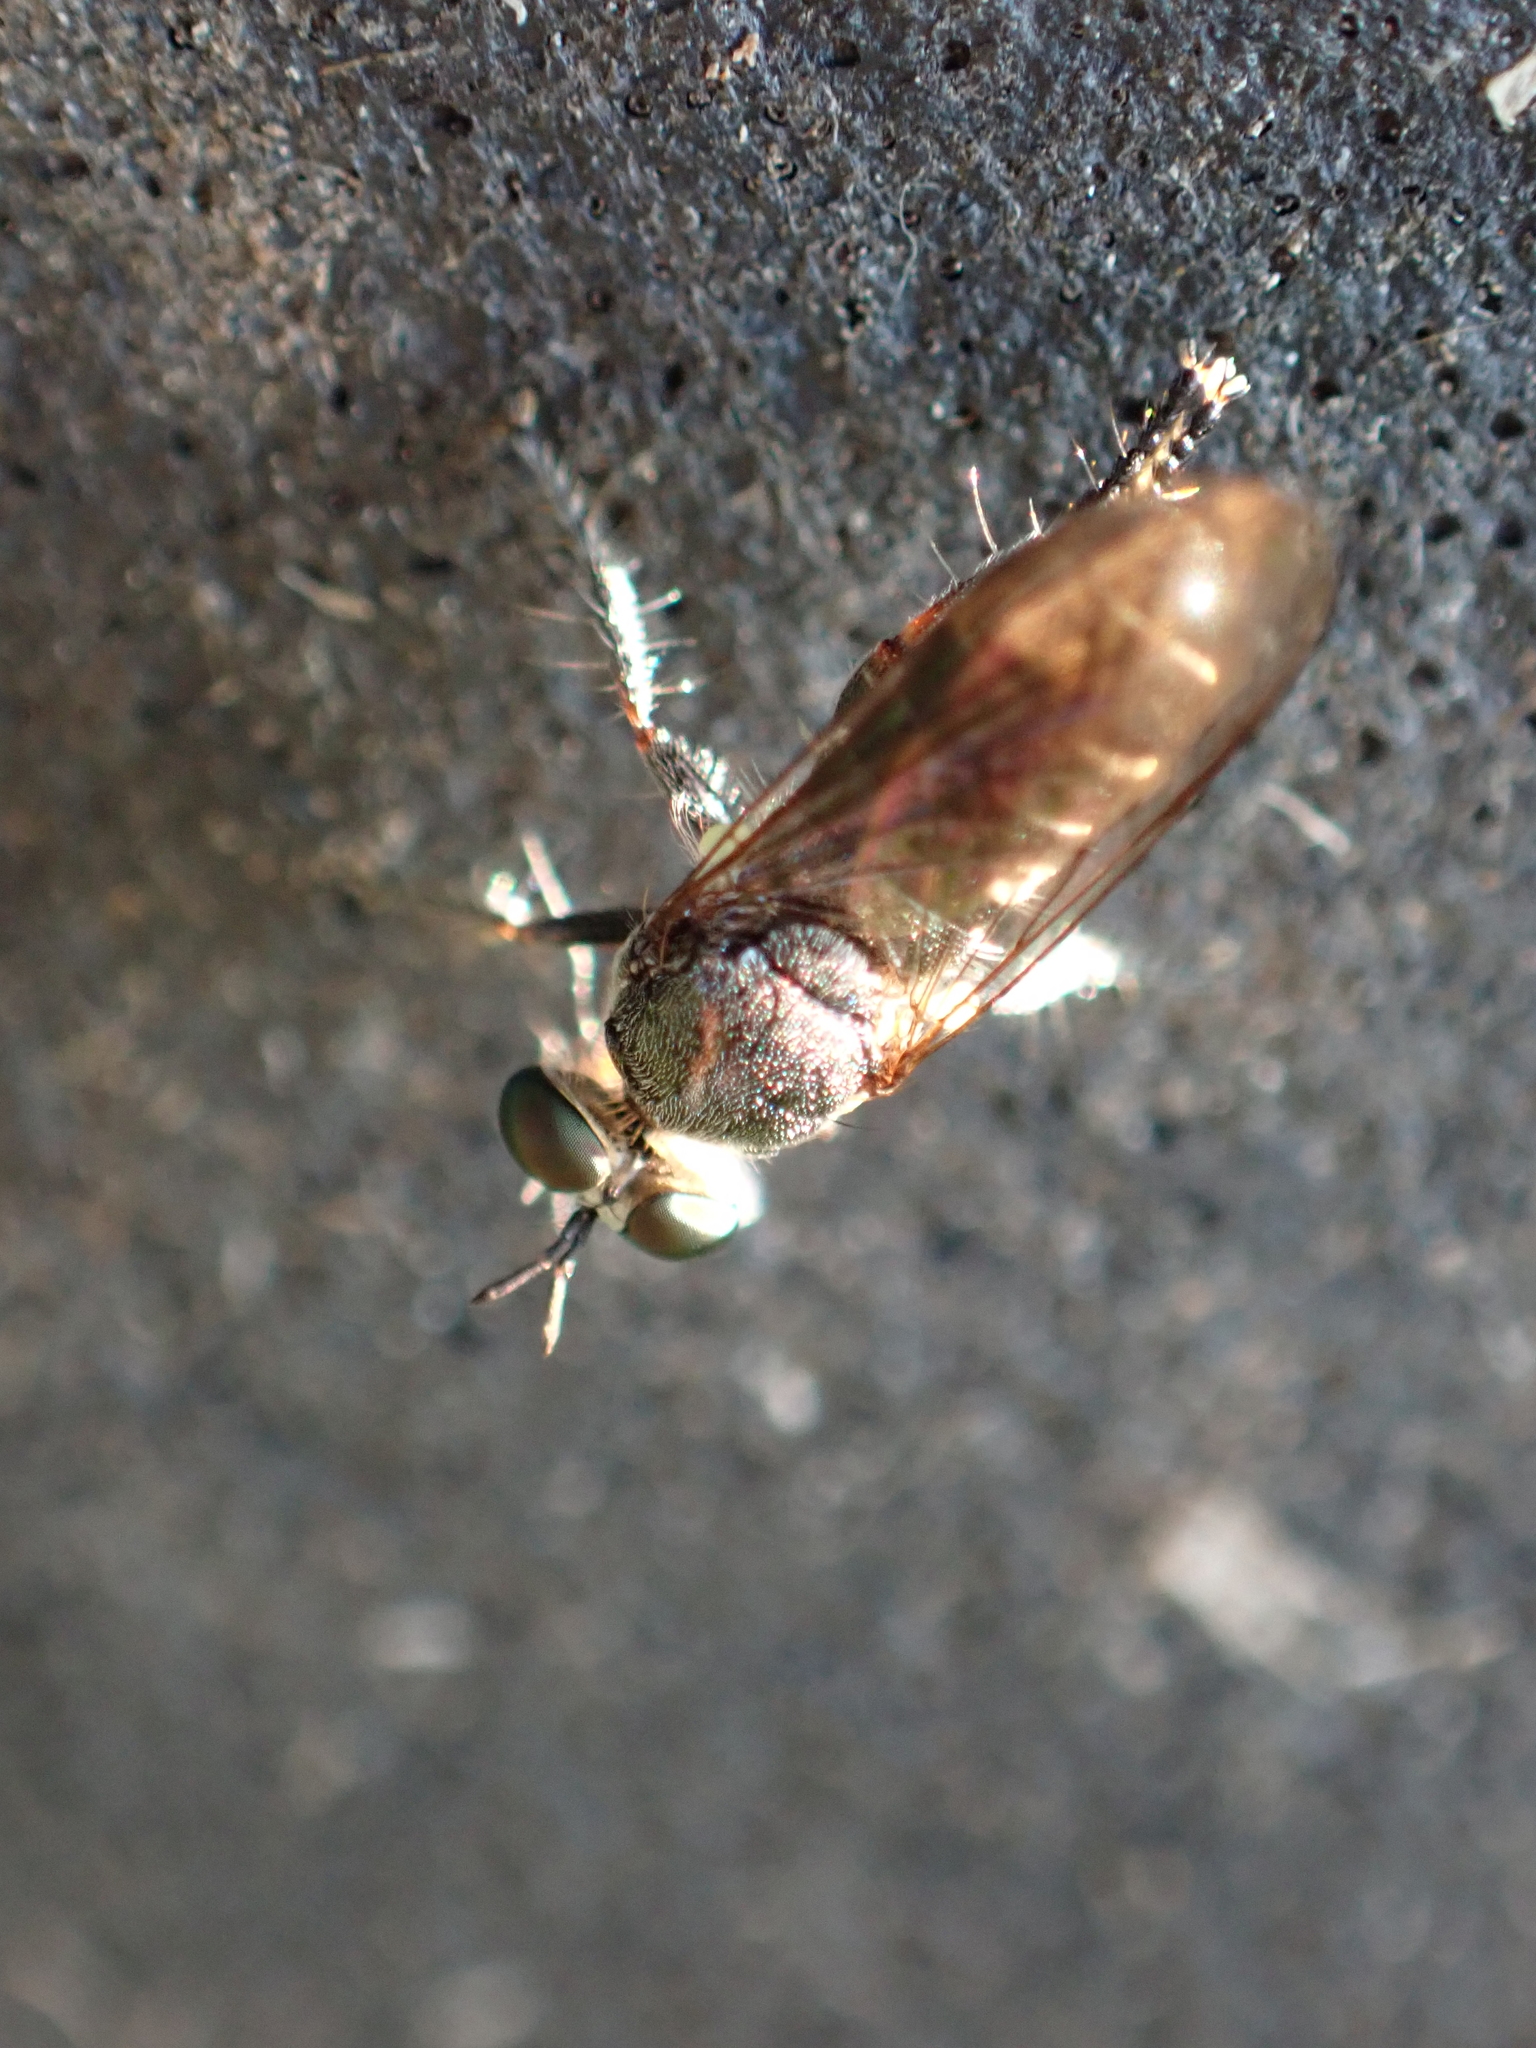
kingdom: Animalia
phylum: Arthropoda
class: Insecta
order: Diptera
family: Asilidae
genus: Atomosia
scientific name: Atomosia puella
